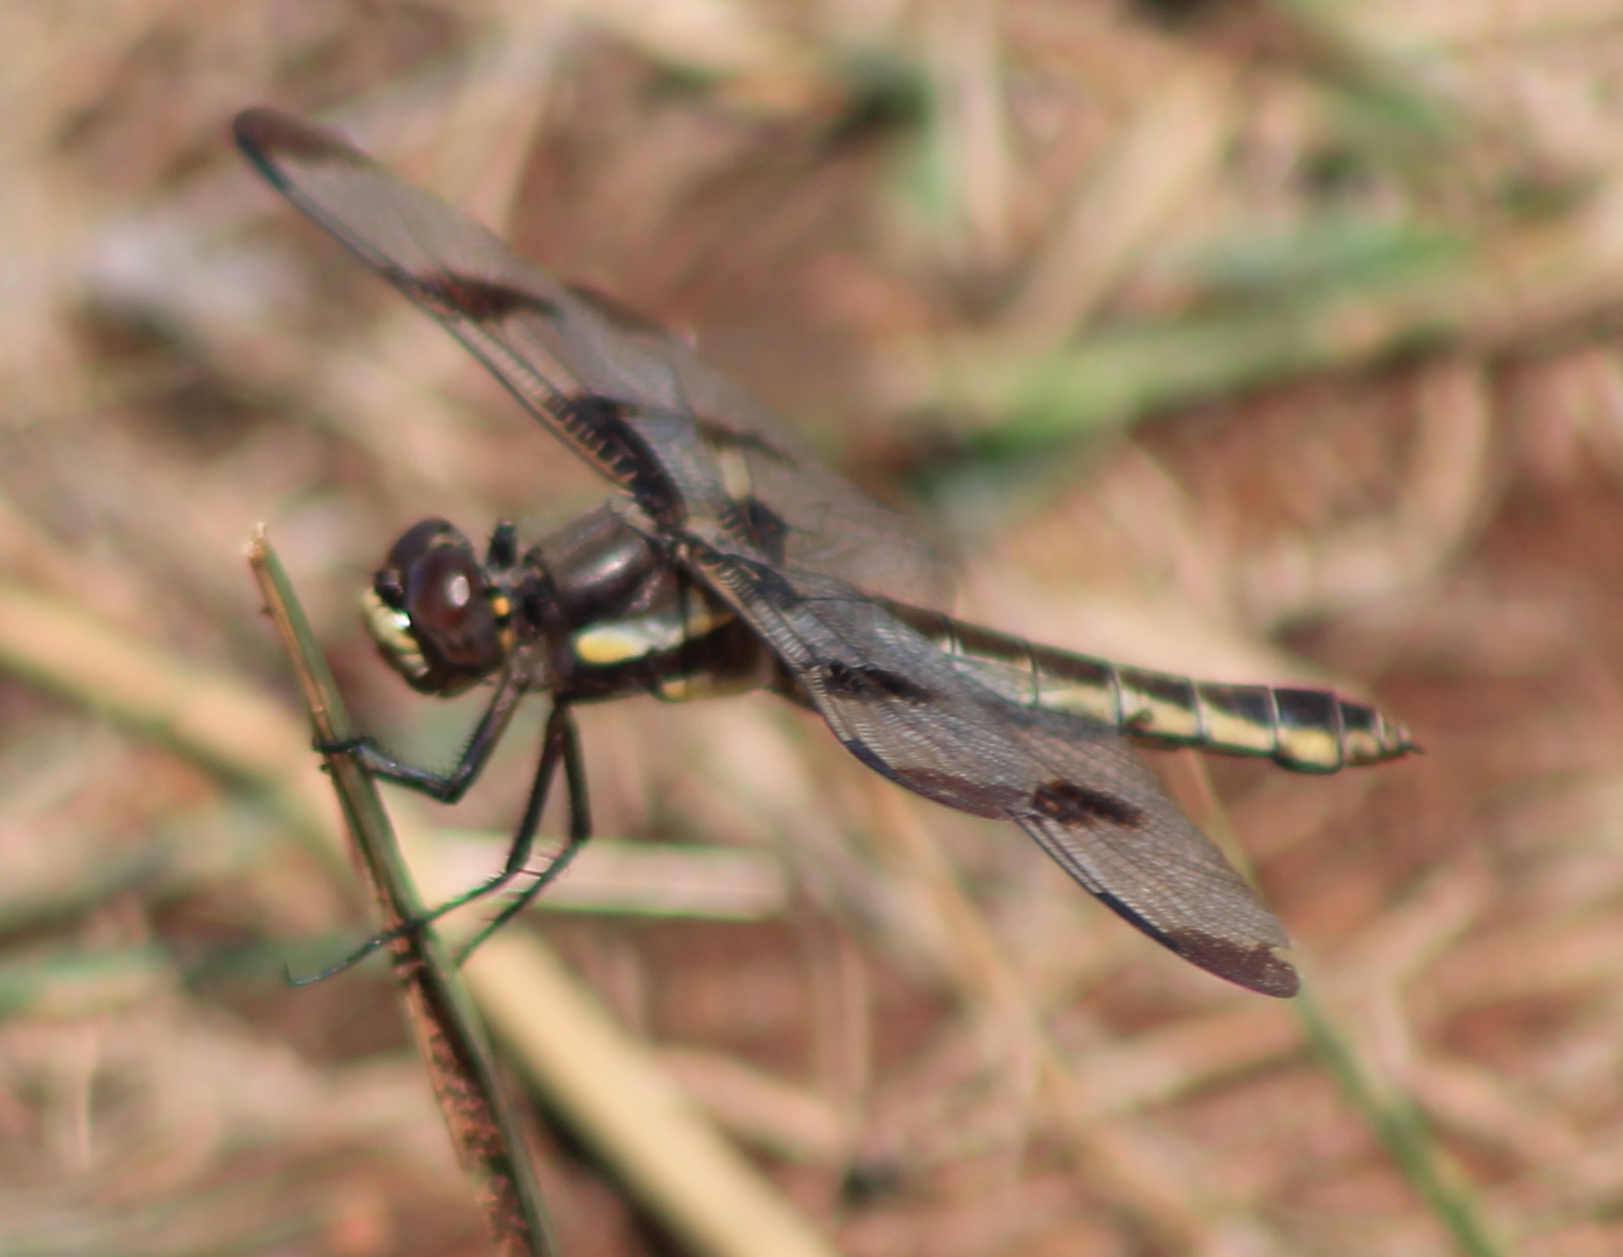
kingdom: Animalia
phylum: Arthropoda
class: Insecta
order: Odonata
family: Libellulidae
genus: Libellula
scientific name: Libellula pulchella
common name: Twelve-spotted skimmer
